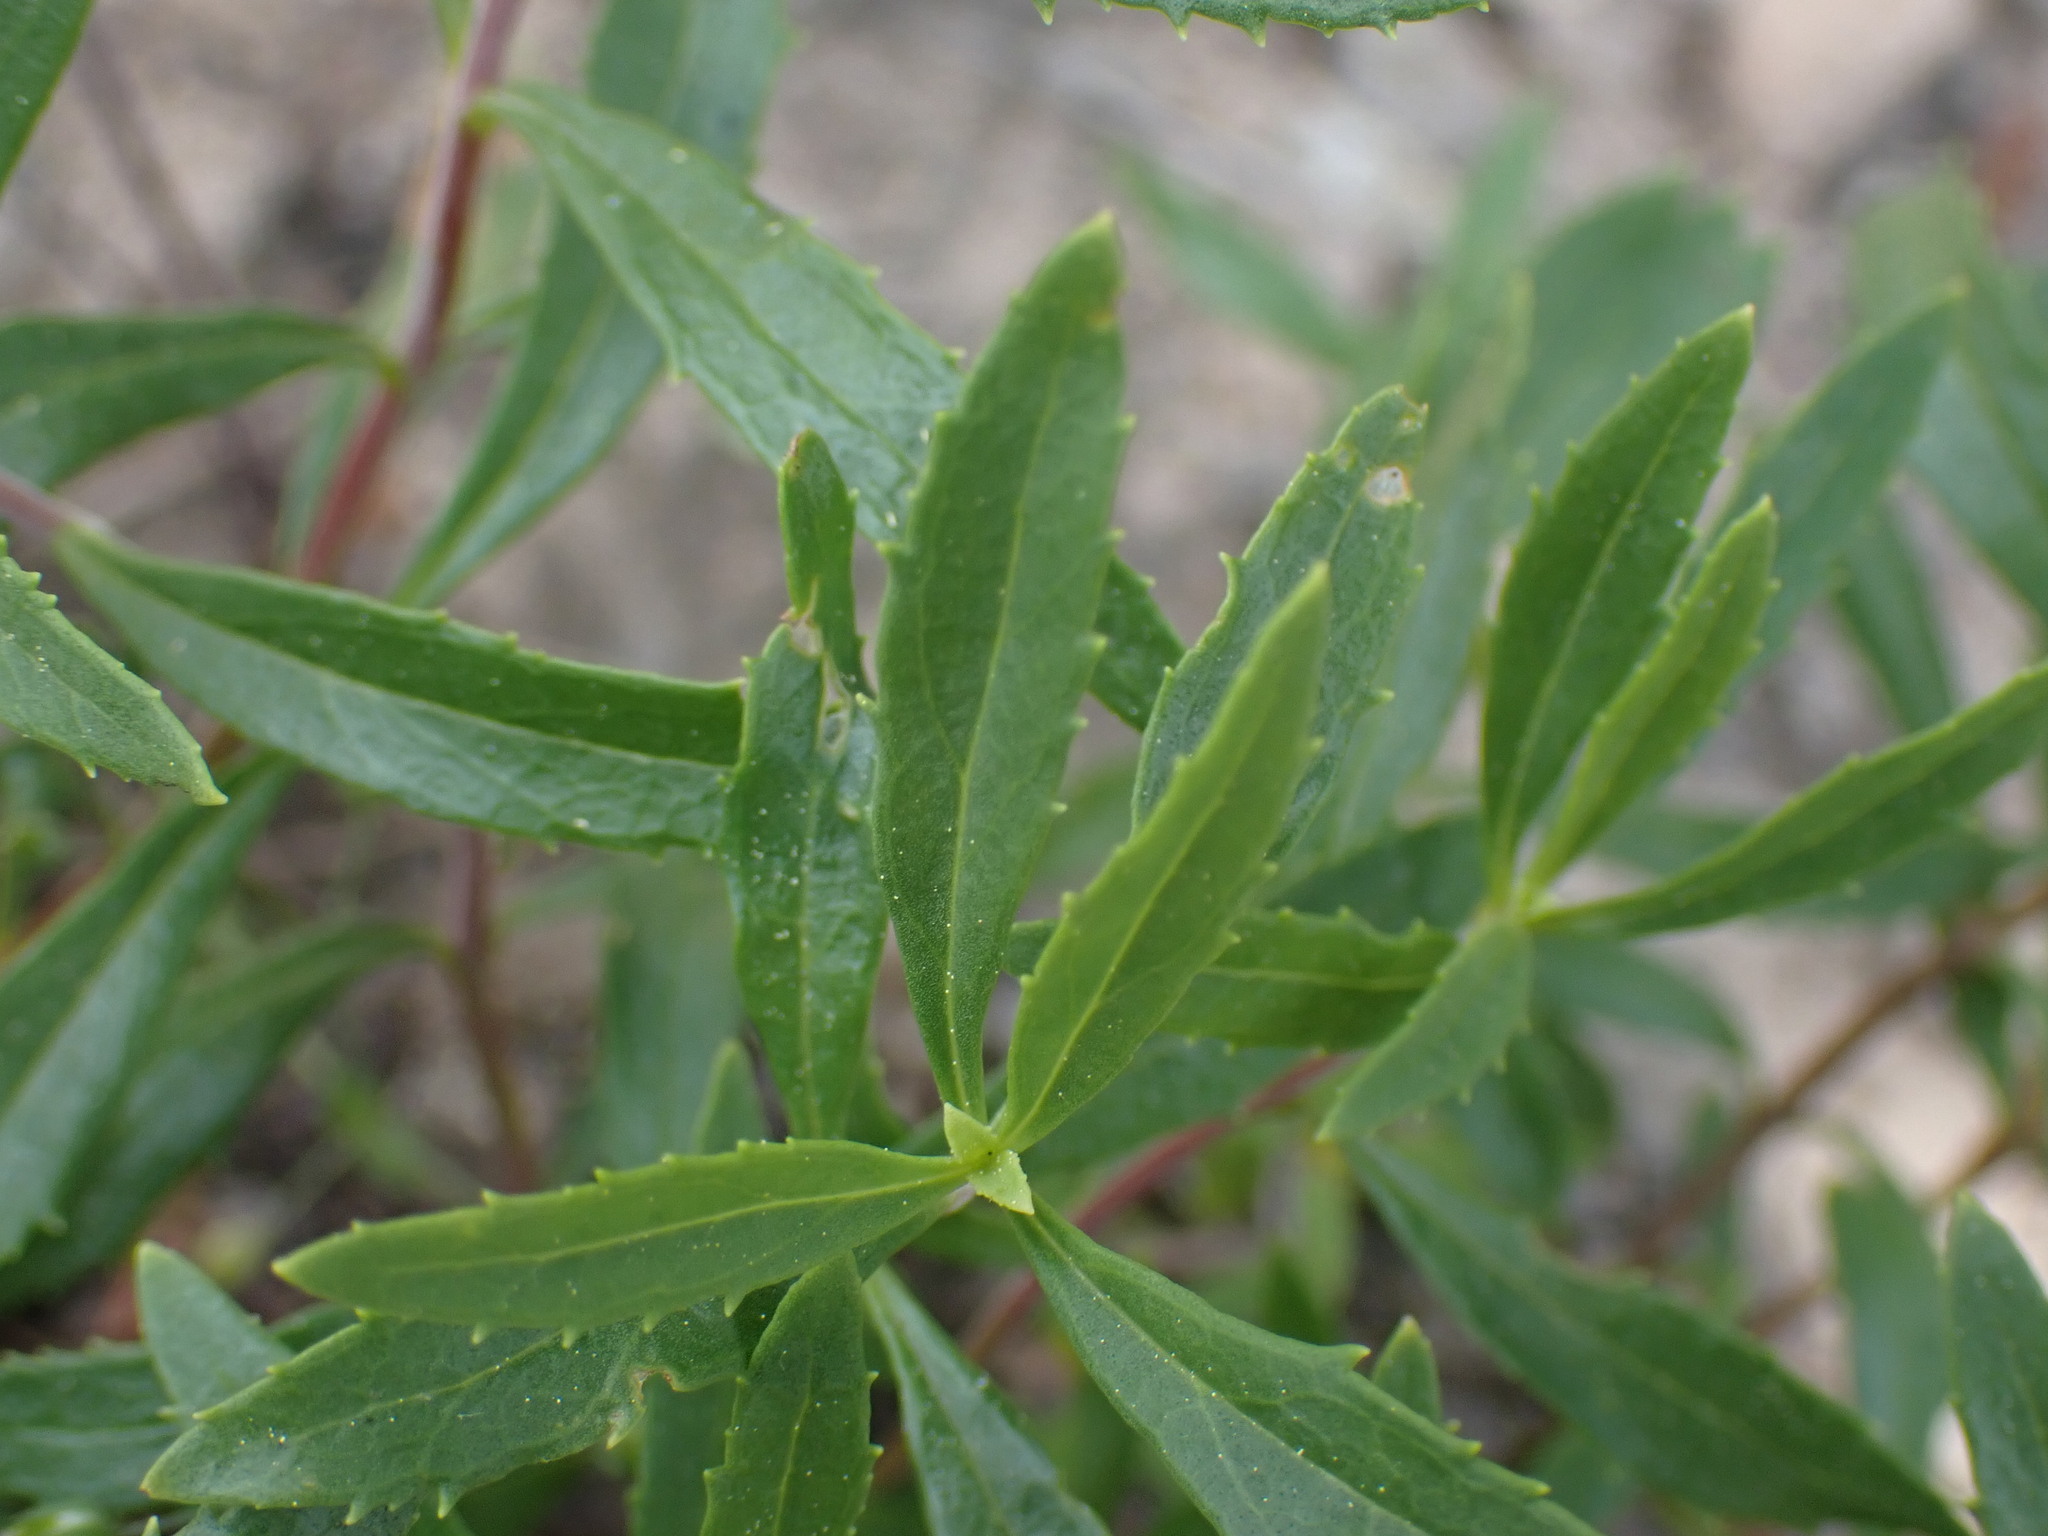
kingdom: Plantae
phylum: Tracheophyta
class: Magnoliopsida
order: Lamiales
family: Plantaginaceae
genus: Penstemon
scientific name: Penstemon fruticosus
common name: Bush penstemon
